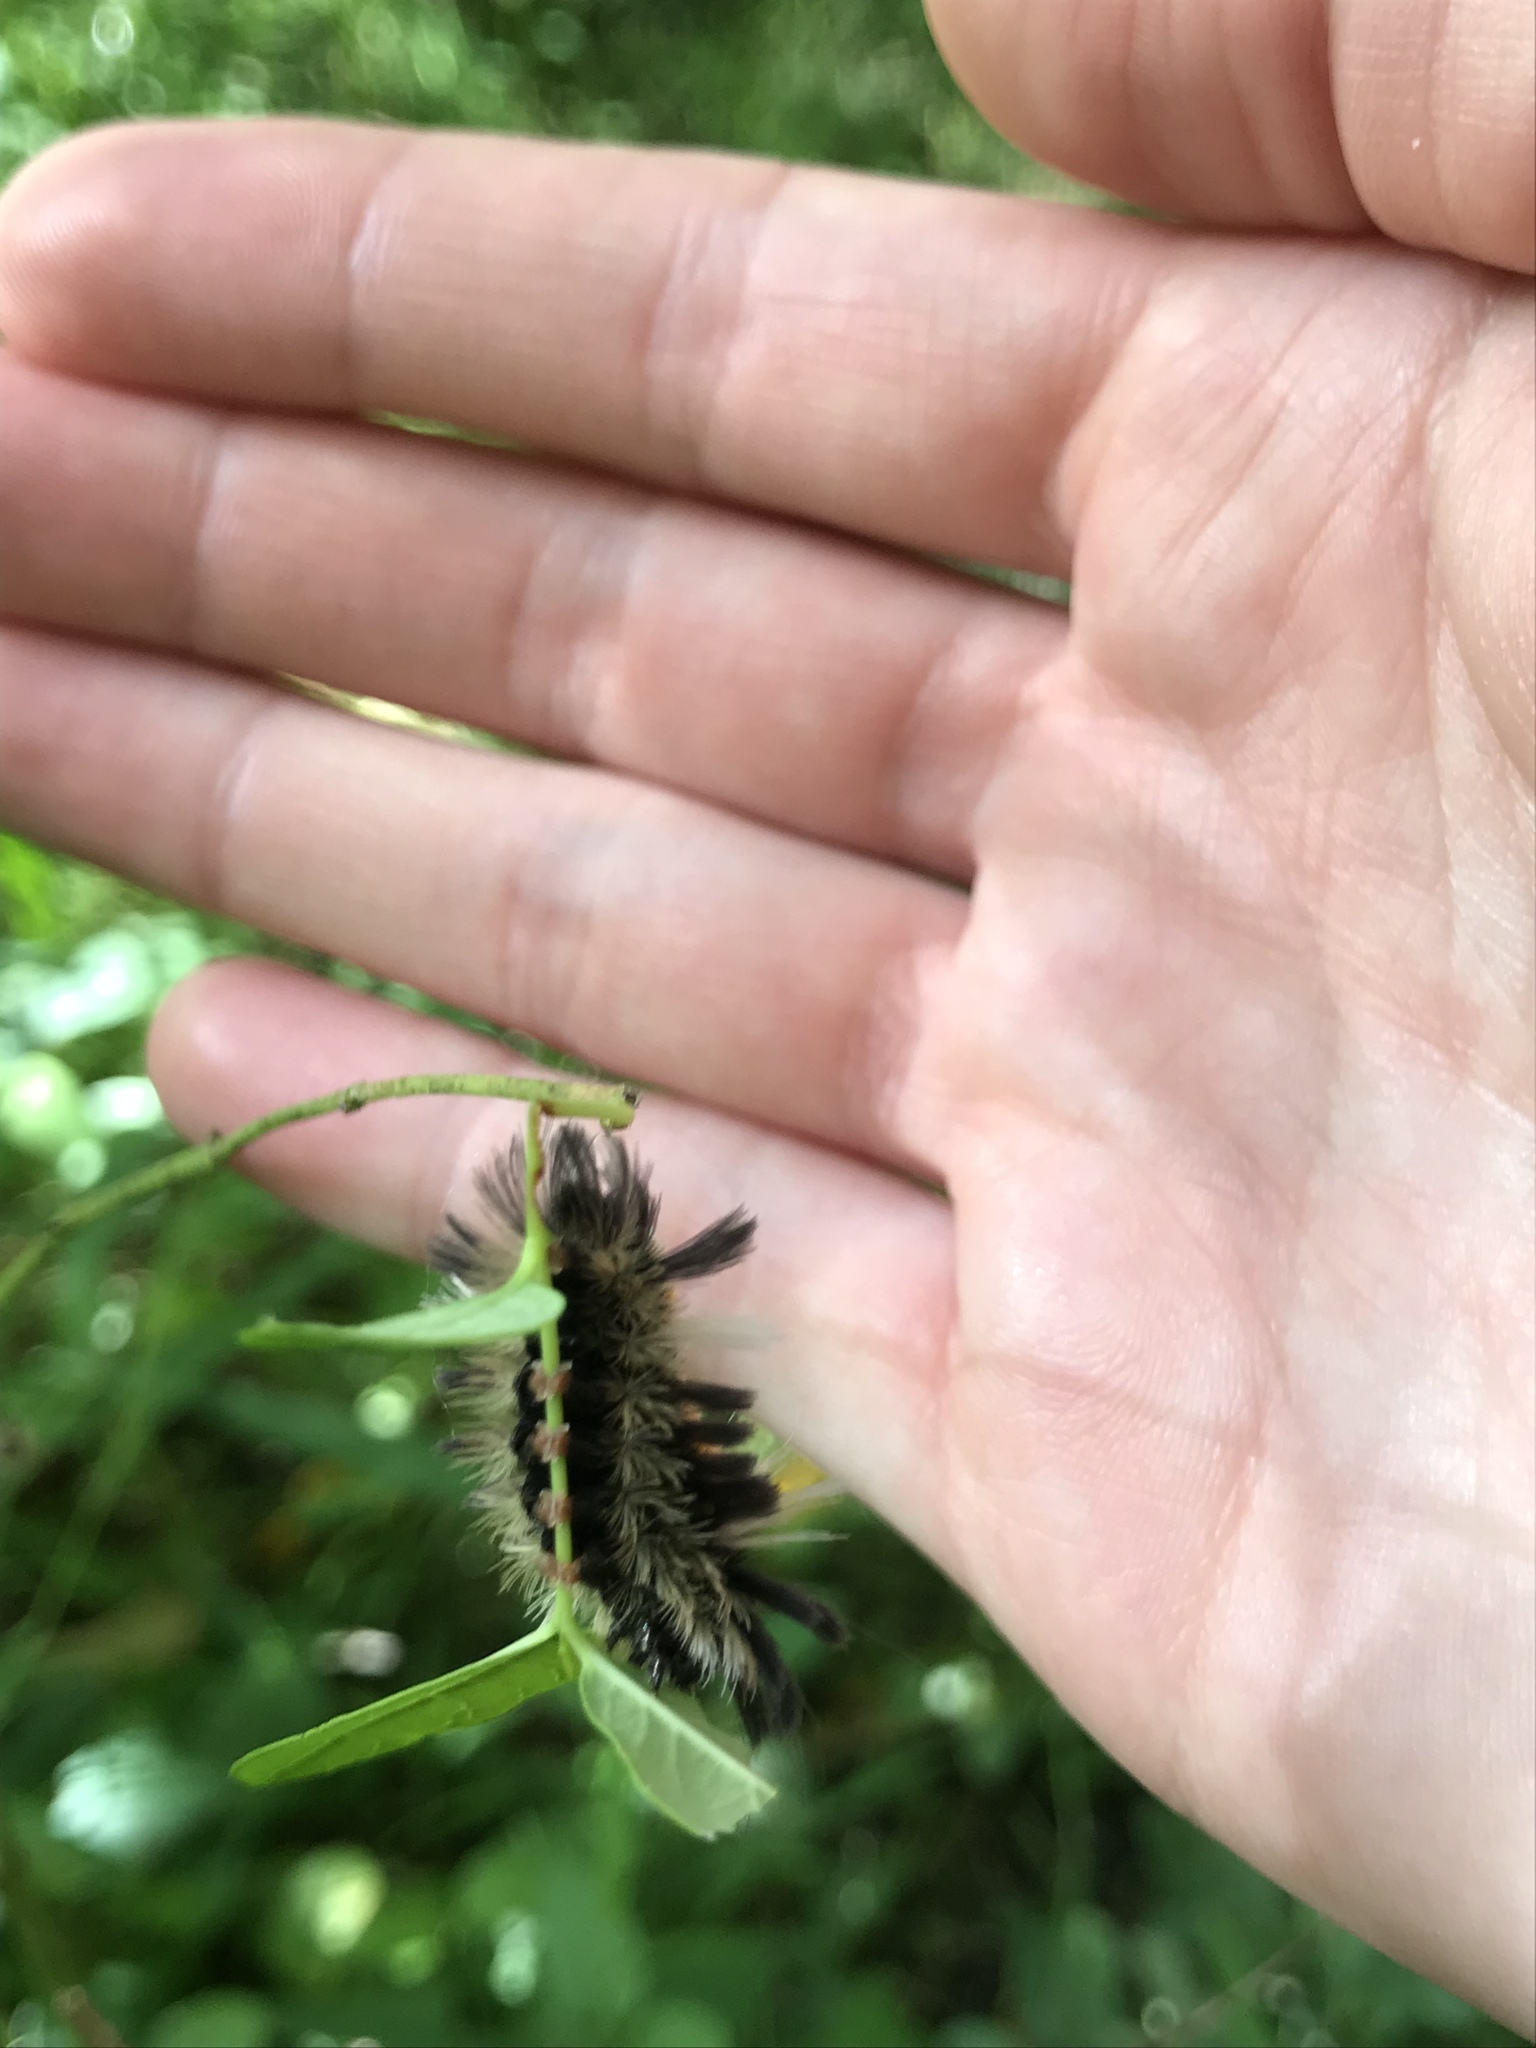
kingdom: Animalia
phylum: Arthropoda
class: Insecta
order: Lepidoptera
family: Erebidae
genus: Euchaetes
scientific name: Euchaetes egle
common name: Milkweed tussock moth
